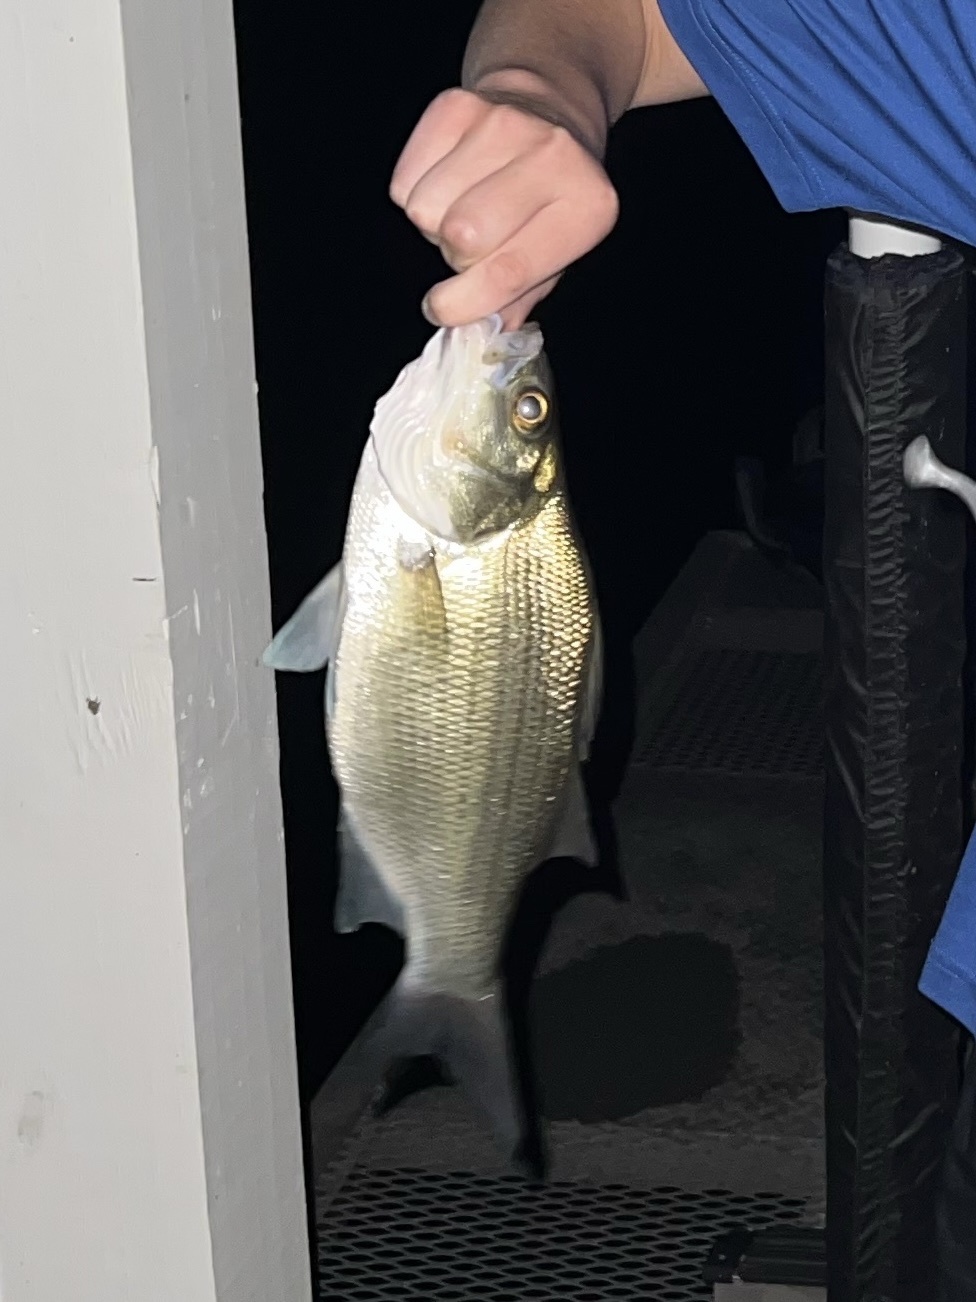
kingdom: Animalia
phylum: Chordata
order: Perciformes
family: Moronidae
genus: Morone
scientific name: Morone chrysops
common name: White bass
